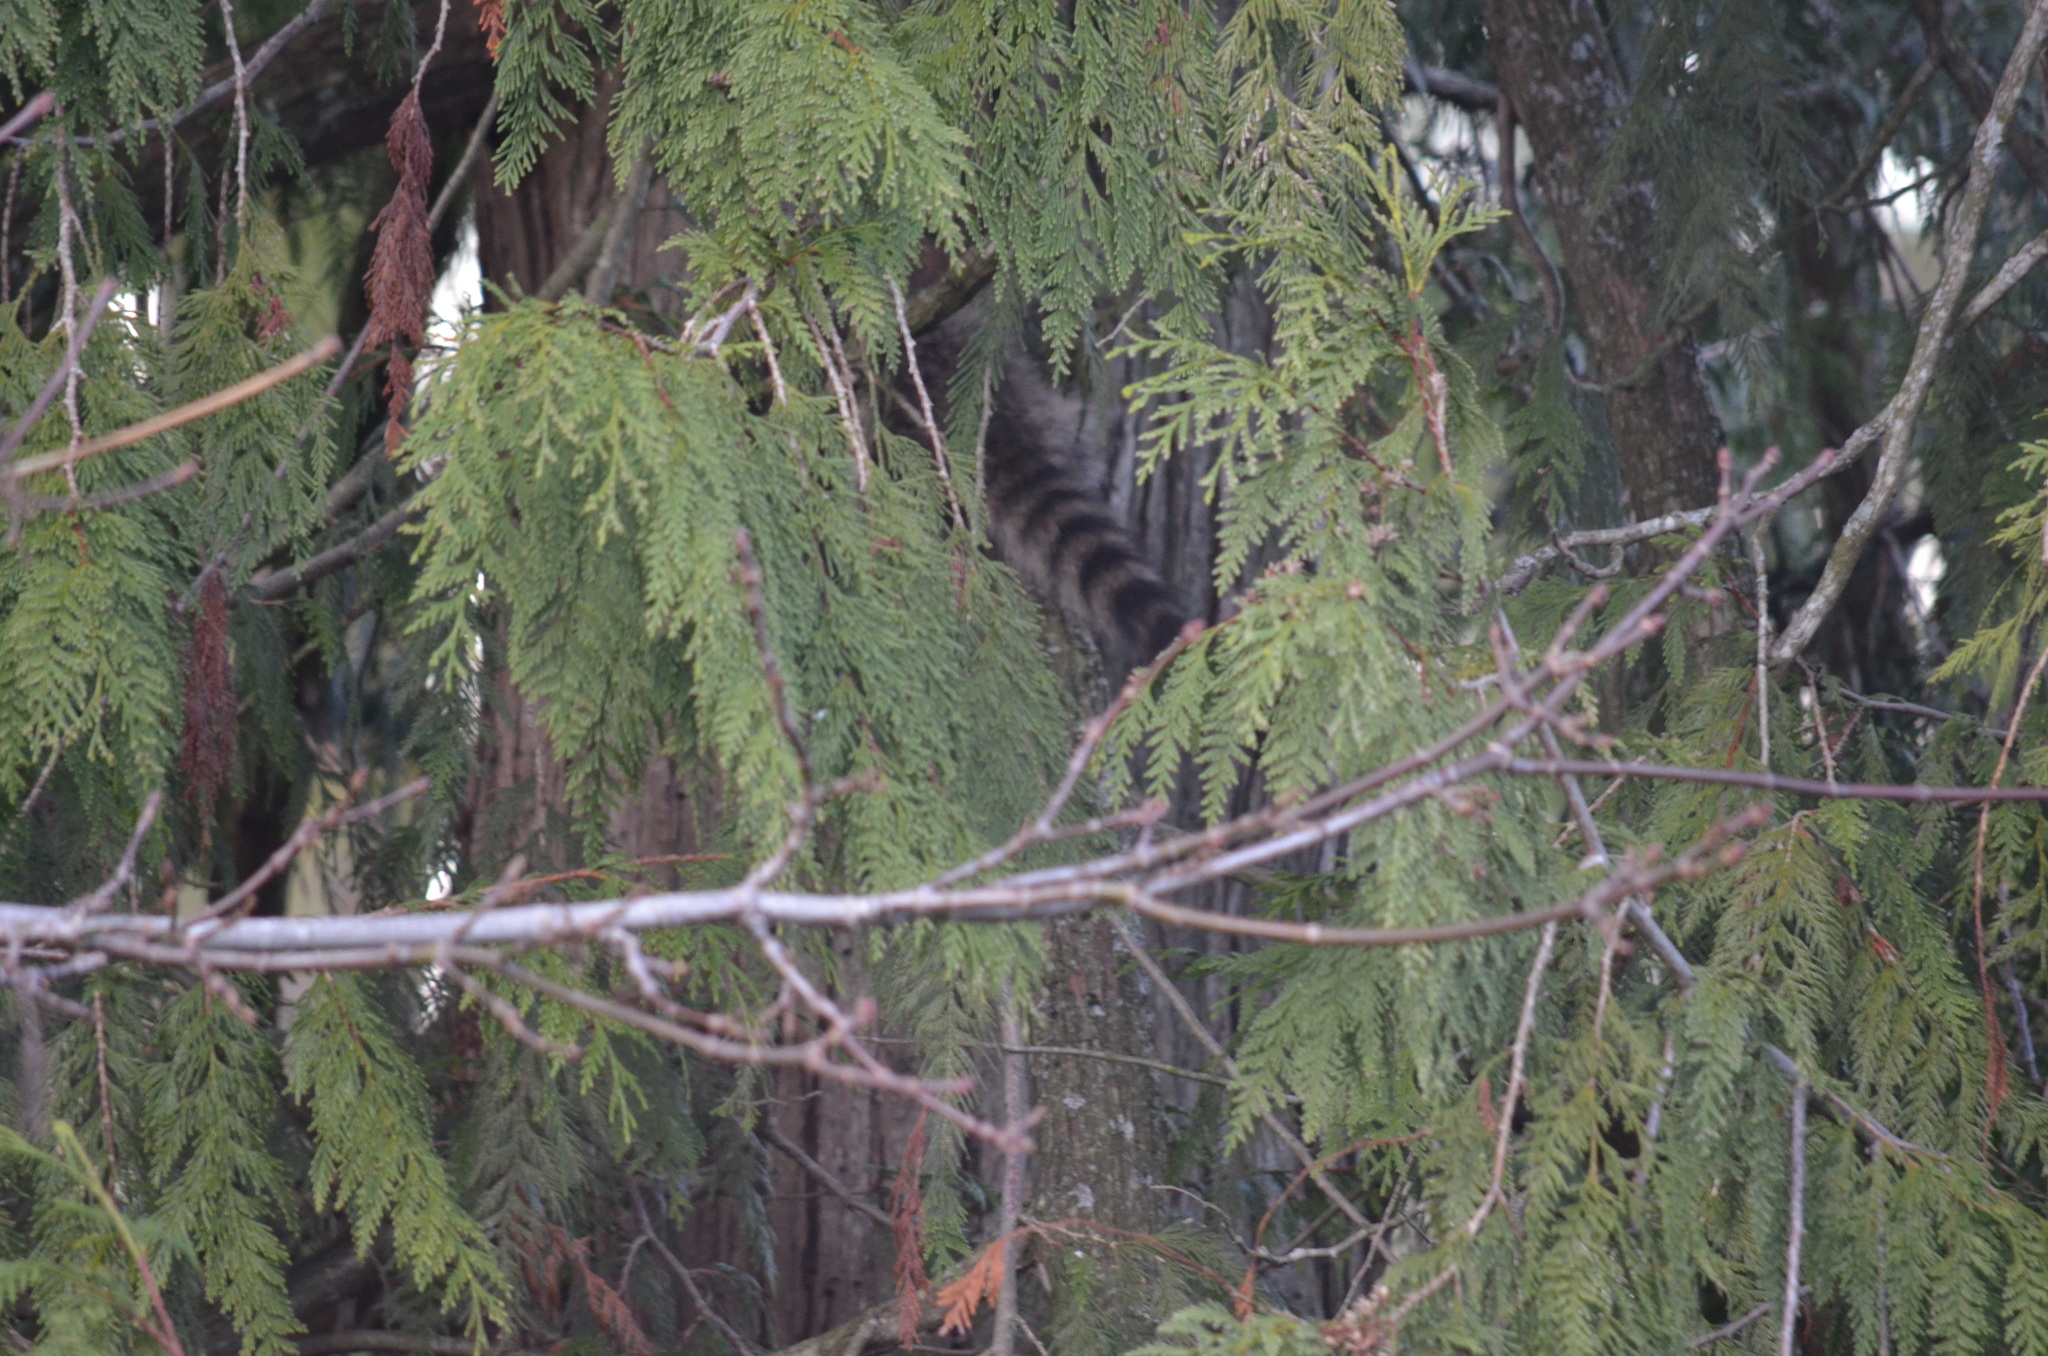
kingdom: Animalia
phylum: Chordata
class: Mammalia
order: Carnivora
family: Procyonidae
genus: Procyon
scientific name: Procyon lotor
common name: Raccoon
